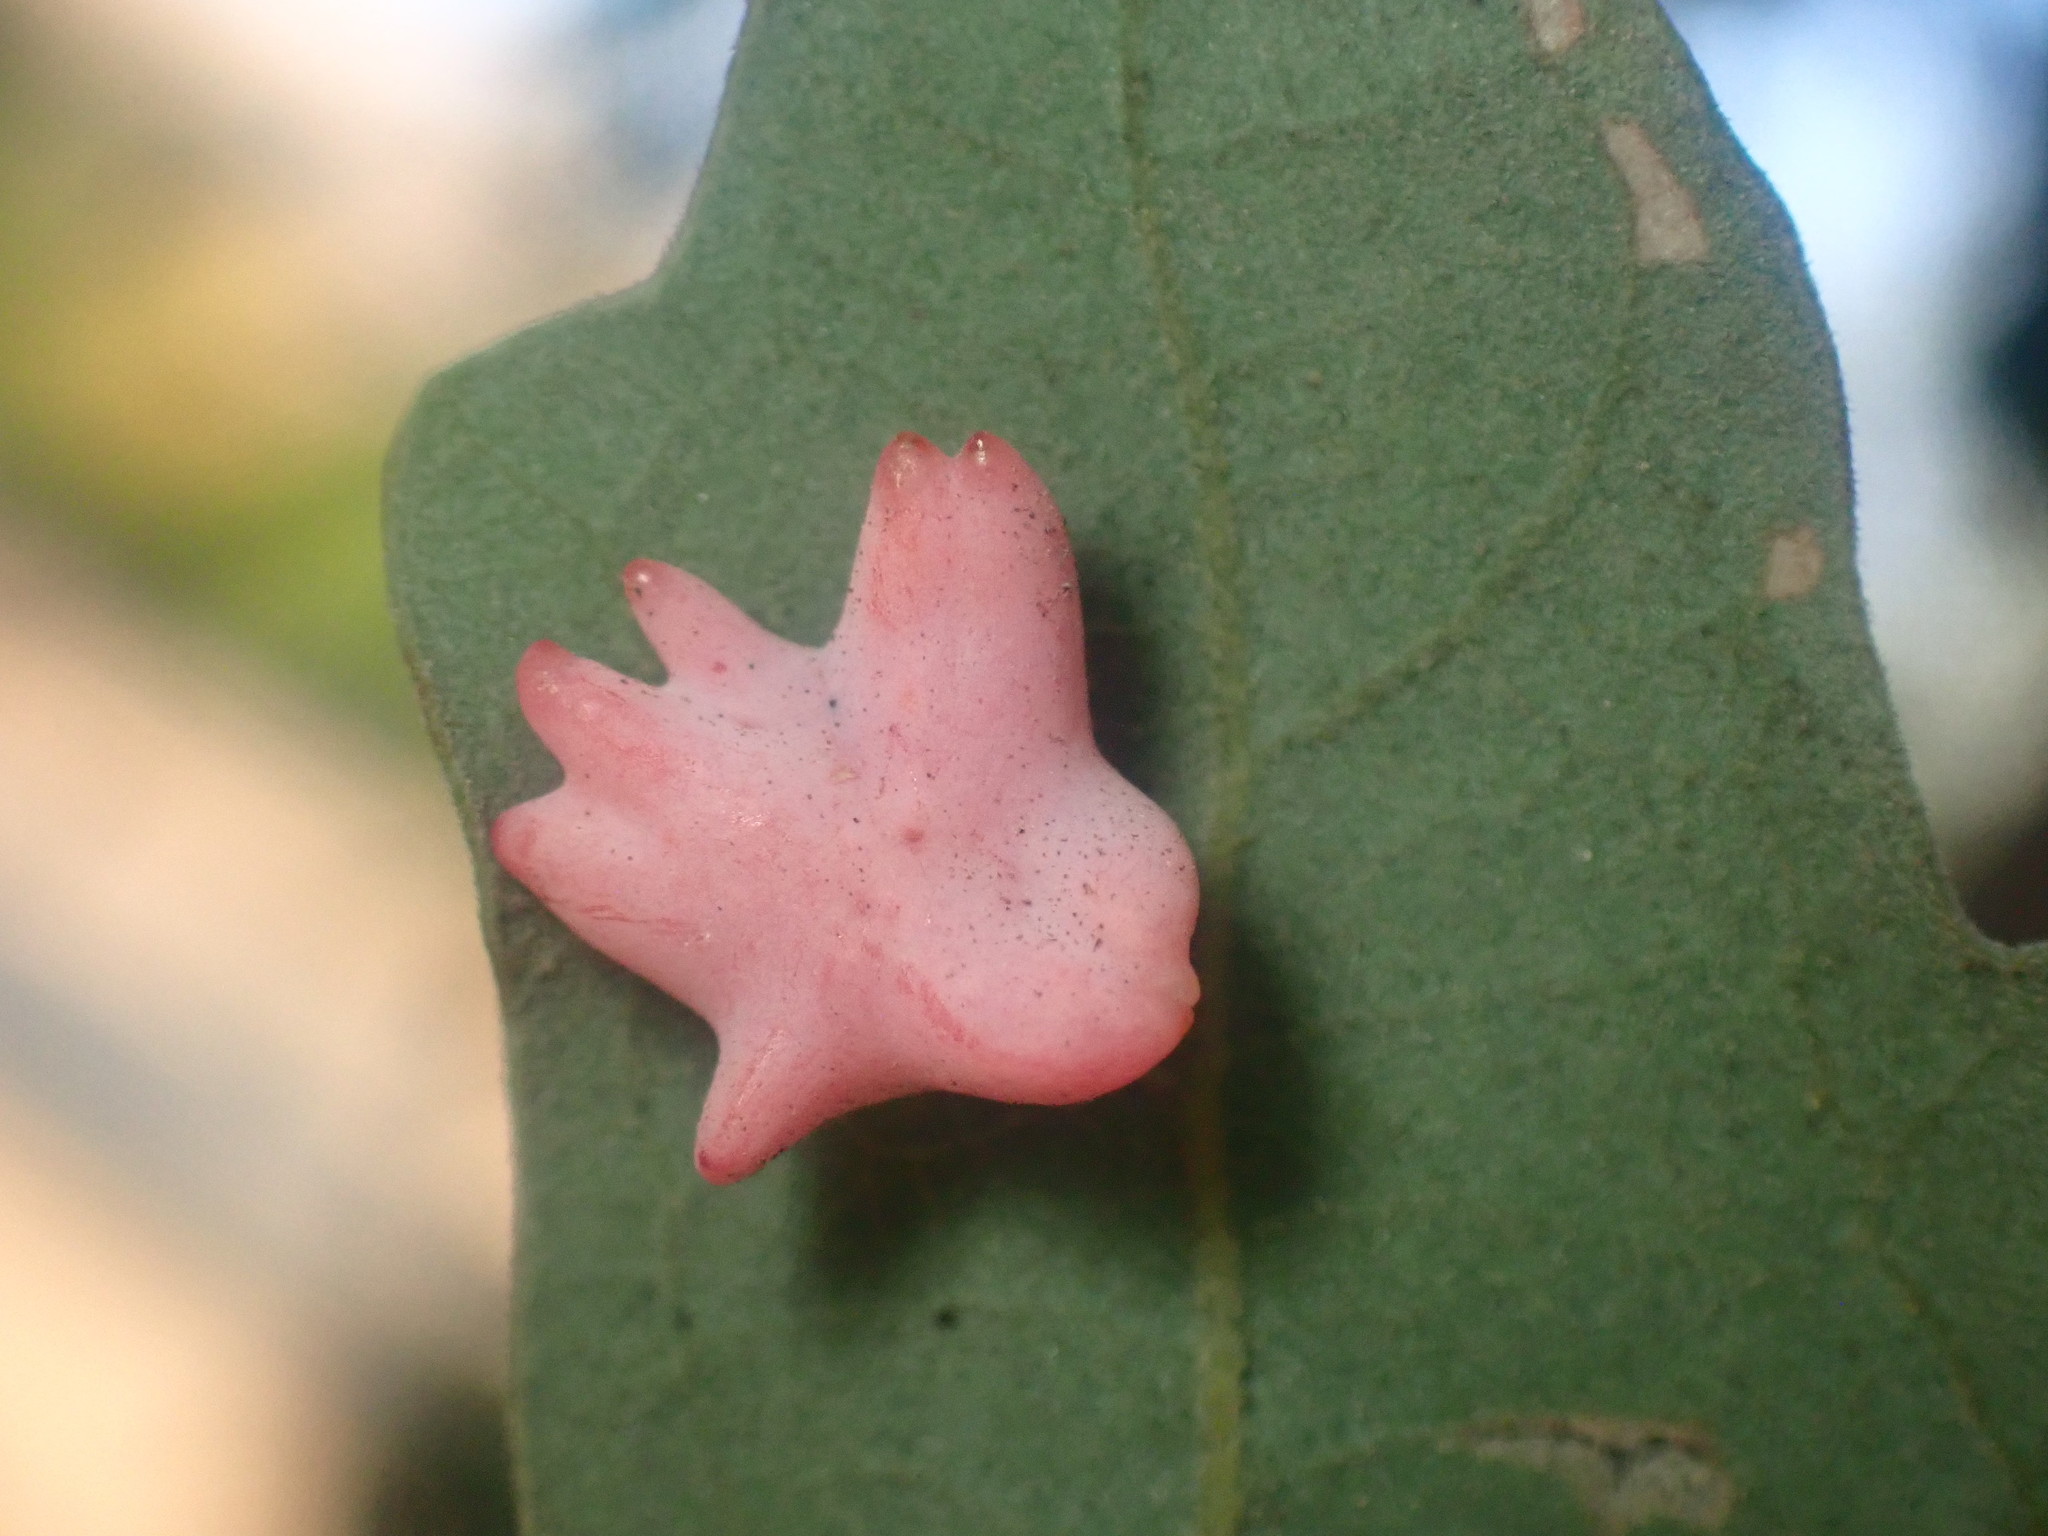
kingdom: Animalia
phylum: Arthropoda
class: Insecta
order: Hymenoptera
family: Cynipidae
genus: Cynips
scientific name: Cynips douglasi
